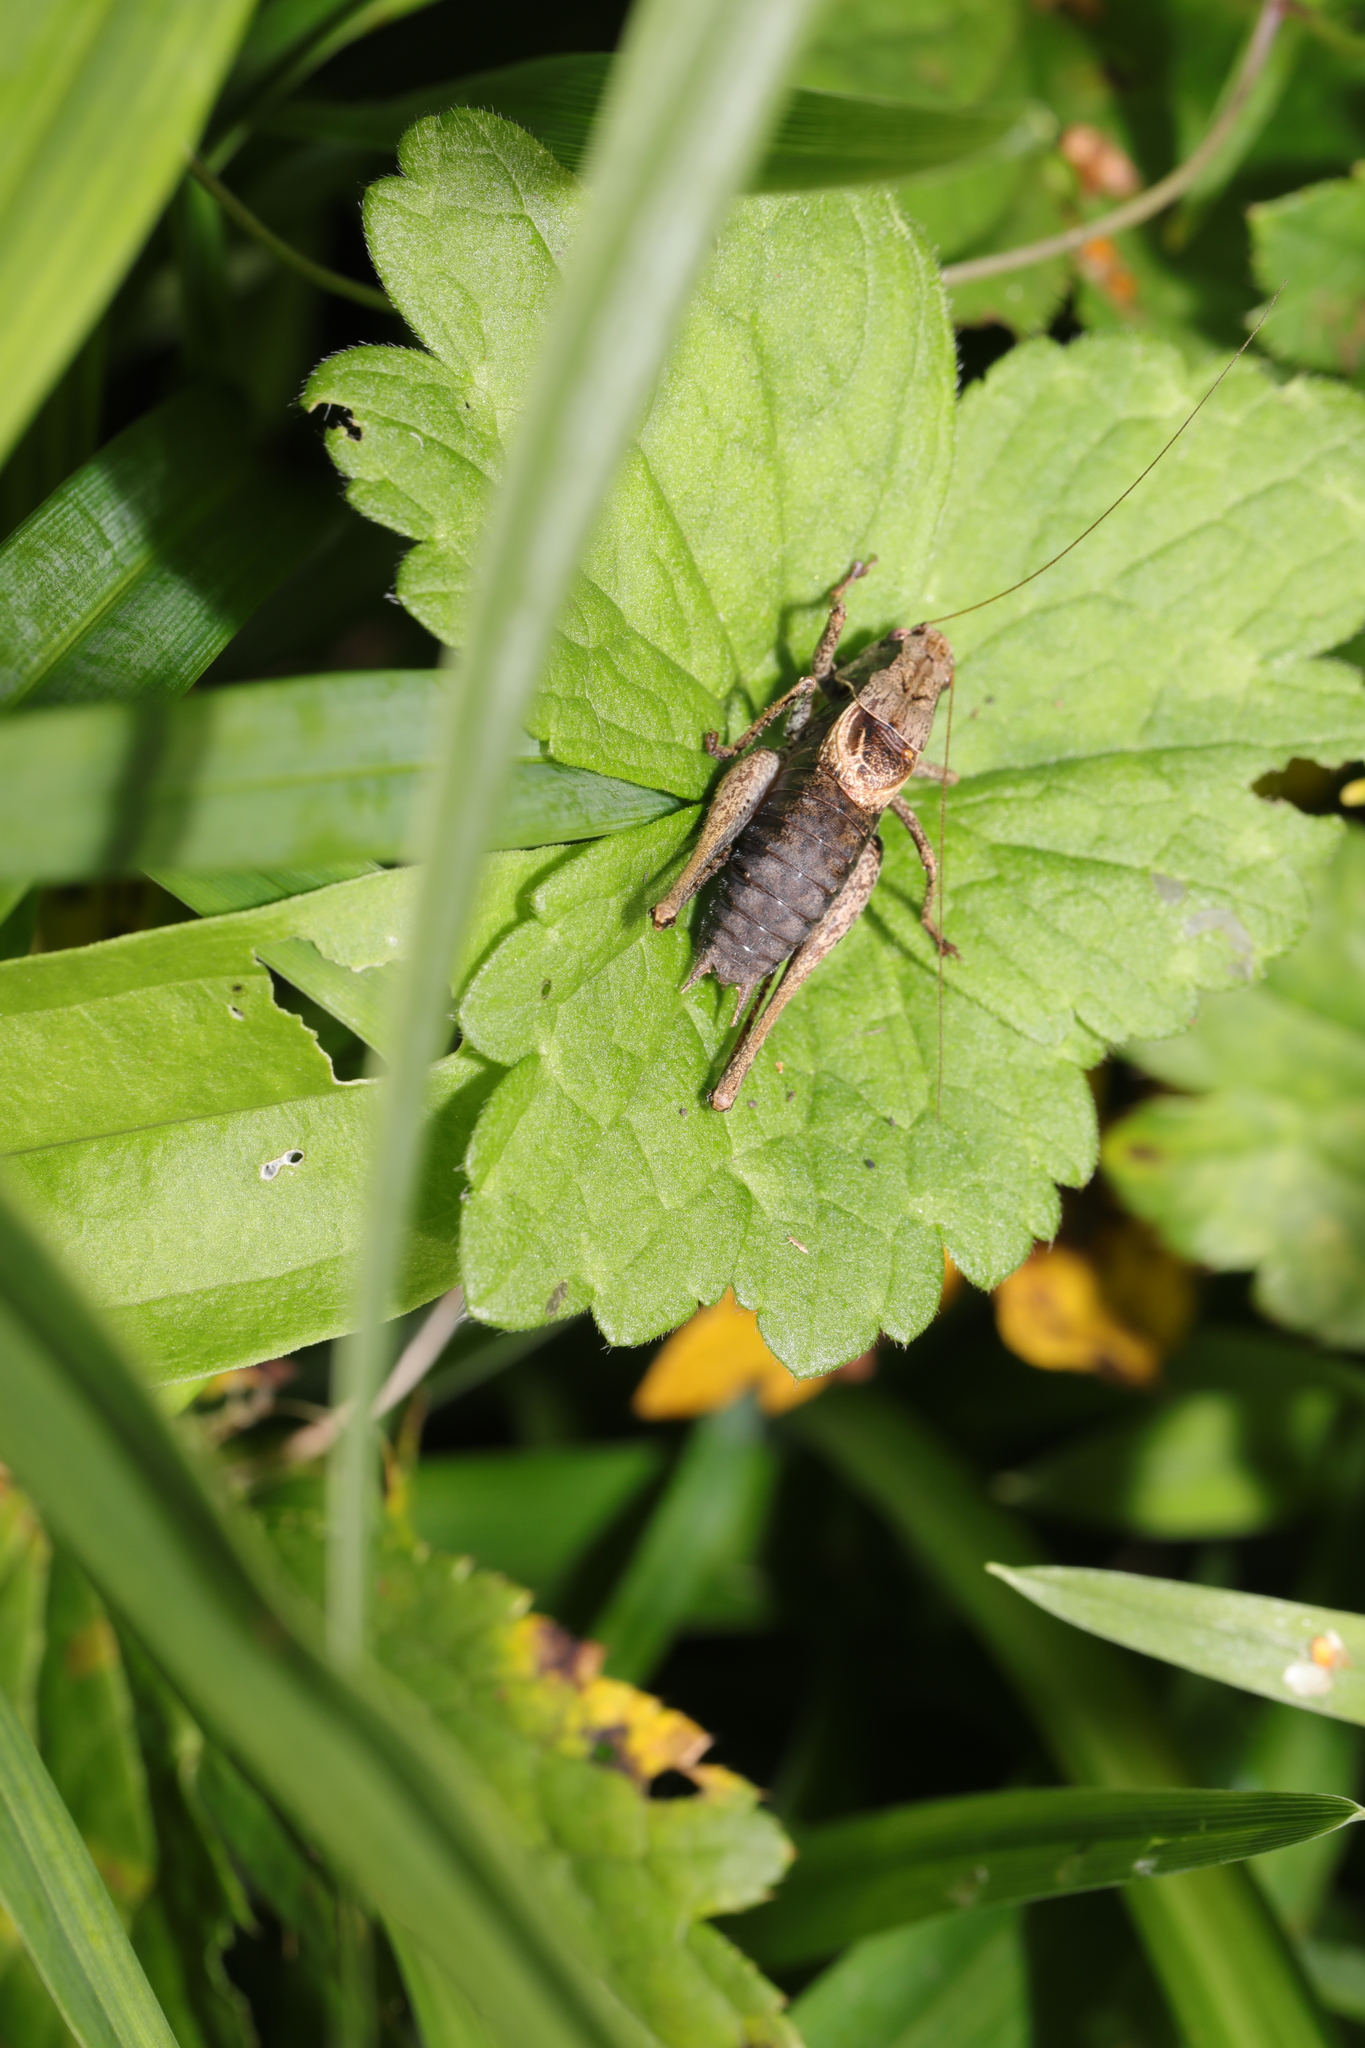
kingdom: Animalia
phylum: Arthropoda
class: Insecta
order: Orthoptera
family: Tettigoniidae
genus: Pholidoptera
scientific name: Pholidoptera griseoaptera
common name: Dark bush-cricket
